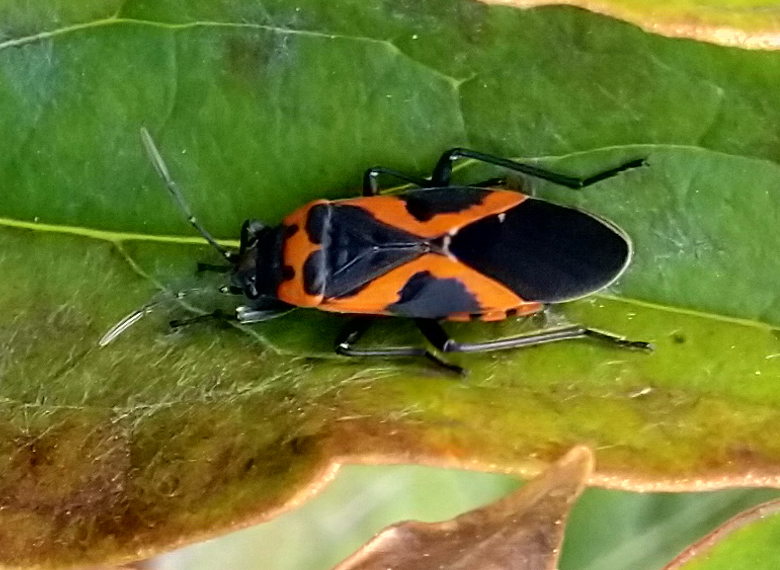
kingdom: Animalia
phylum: Arthropoda
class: Insecta
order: Hemiptera
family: Lygaeidae
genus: Lygaeus
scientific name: Lygaeus kalmii
